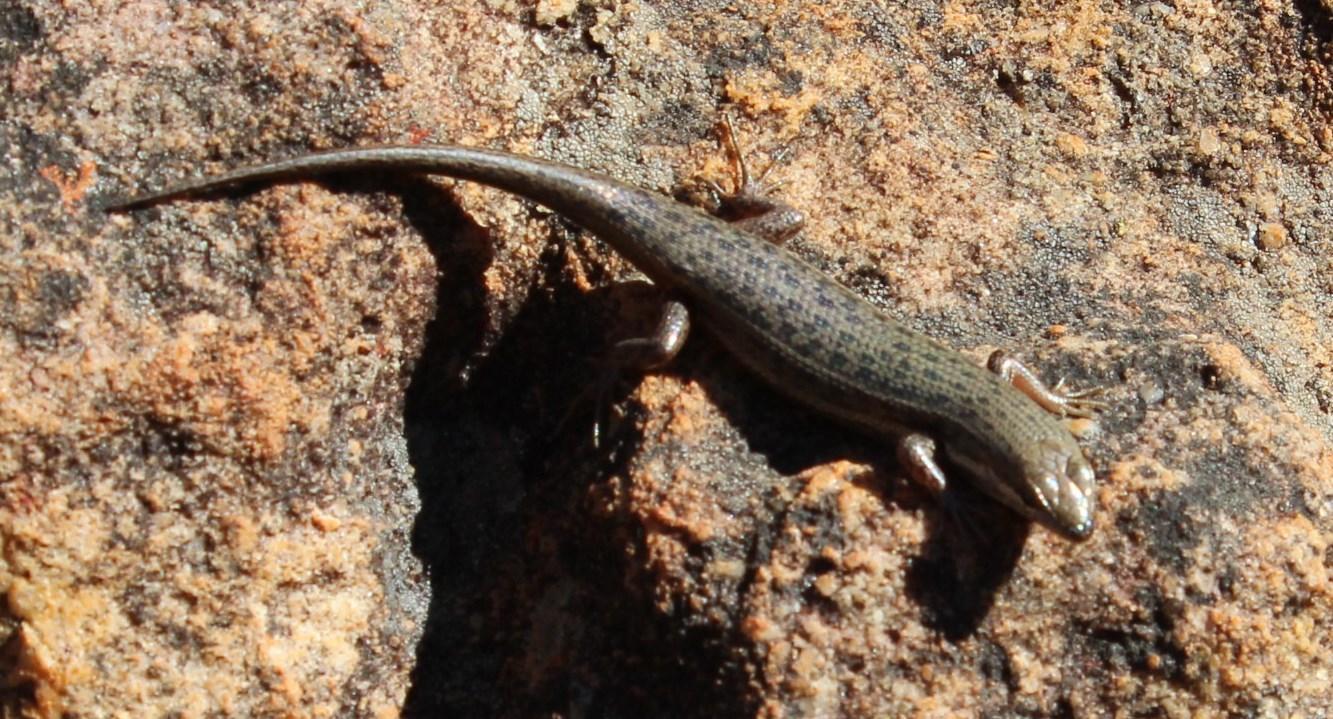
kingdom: Animalia
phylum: Chordata
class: Squamata
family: Scincidae
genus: Trachylepis
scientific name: Trachylepis variegata
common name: Variegated skink
